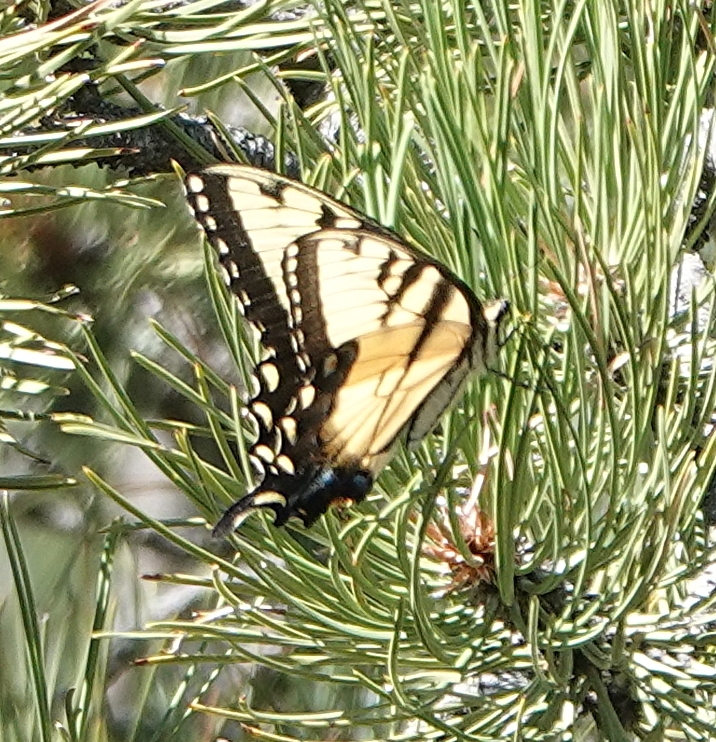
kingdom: Animalia
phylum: Arthropoda
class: Insecta
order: Lepidoptera
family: Papilionidae
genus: Papilio
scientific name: Papilio glaucus
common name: Tiger swallowtail
